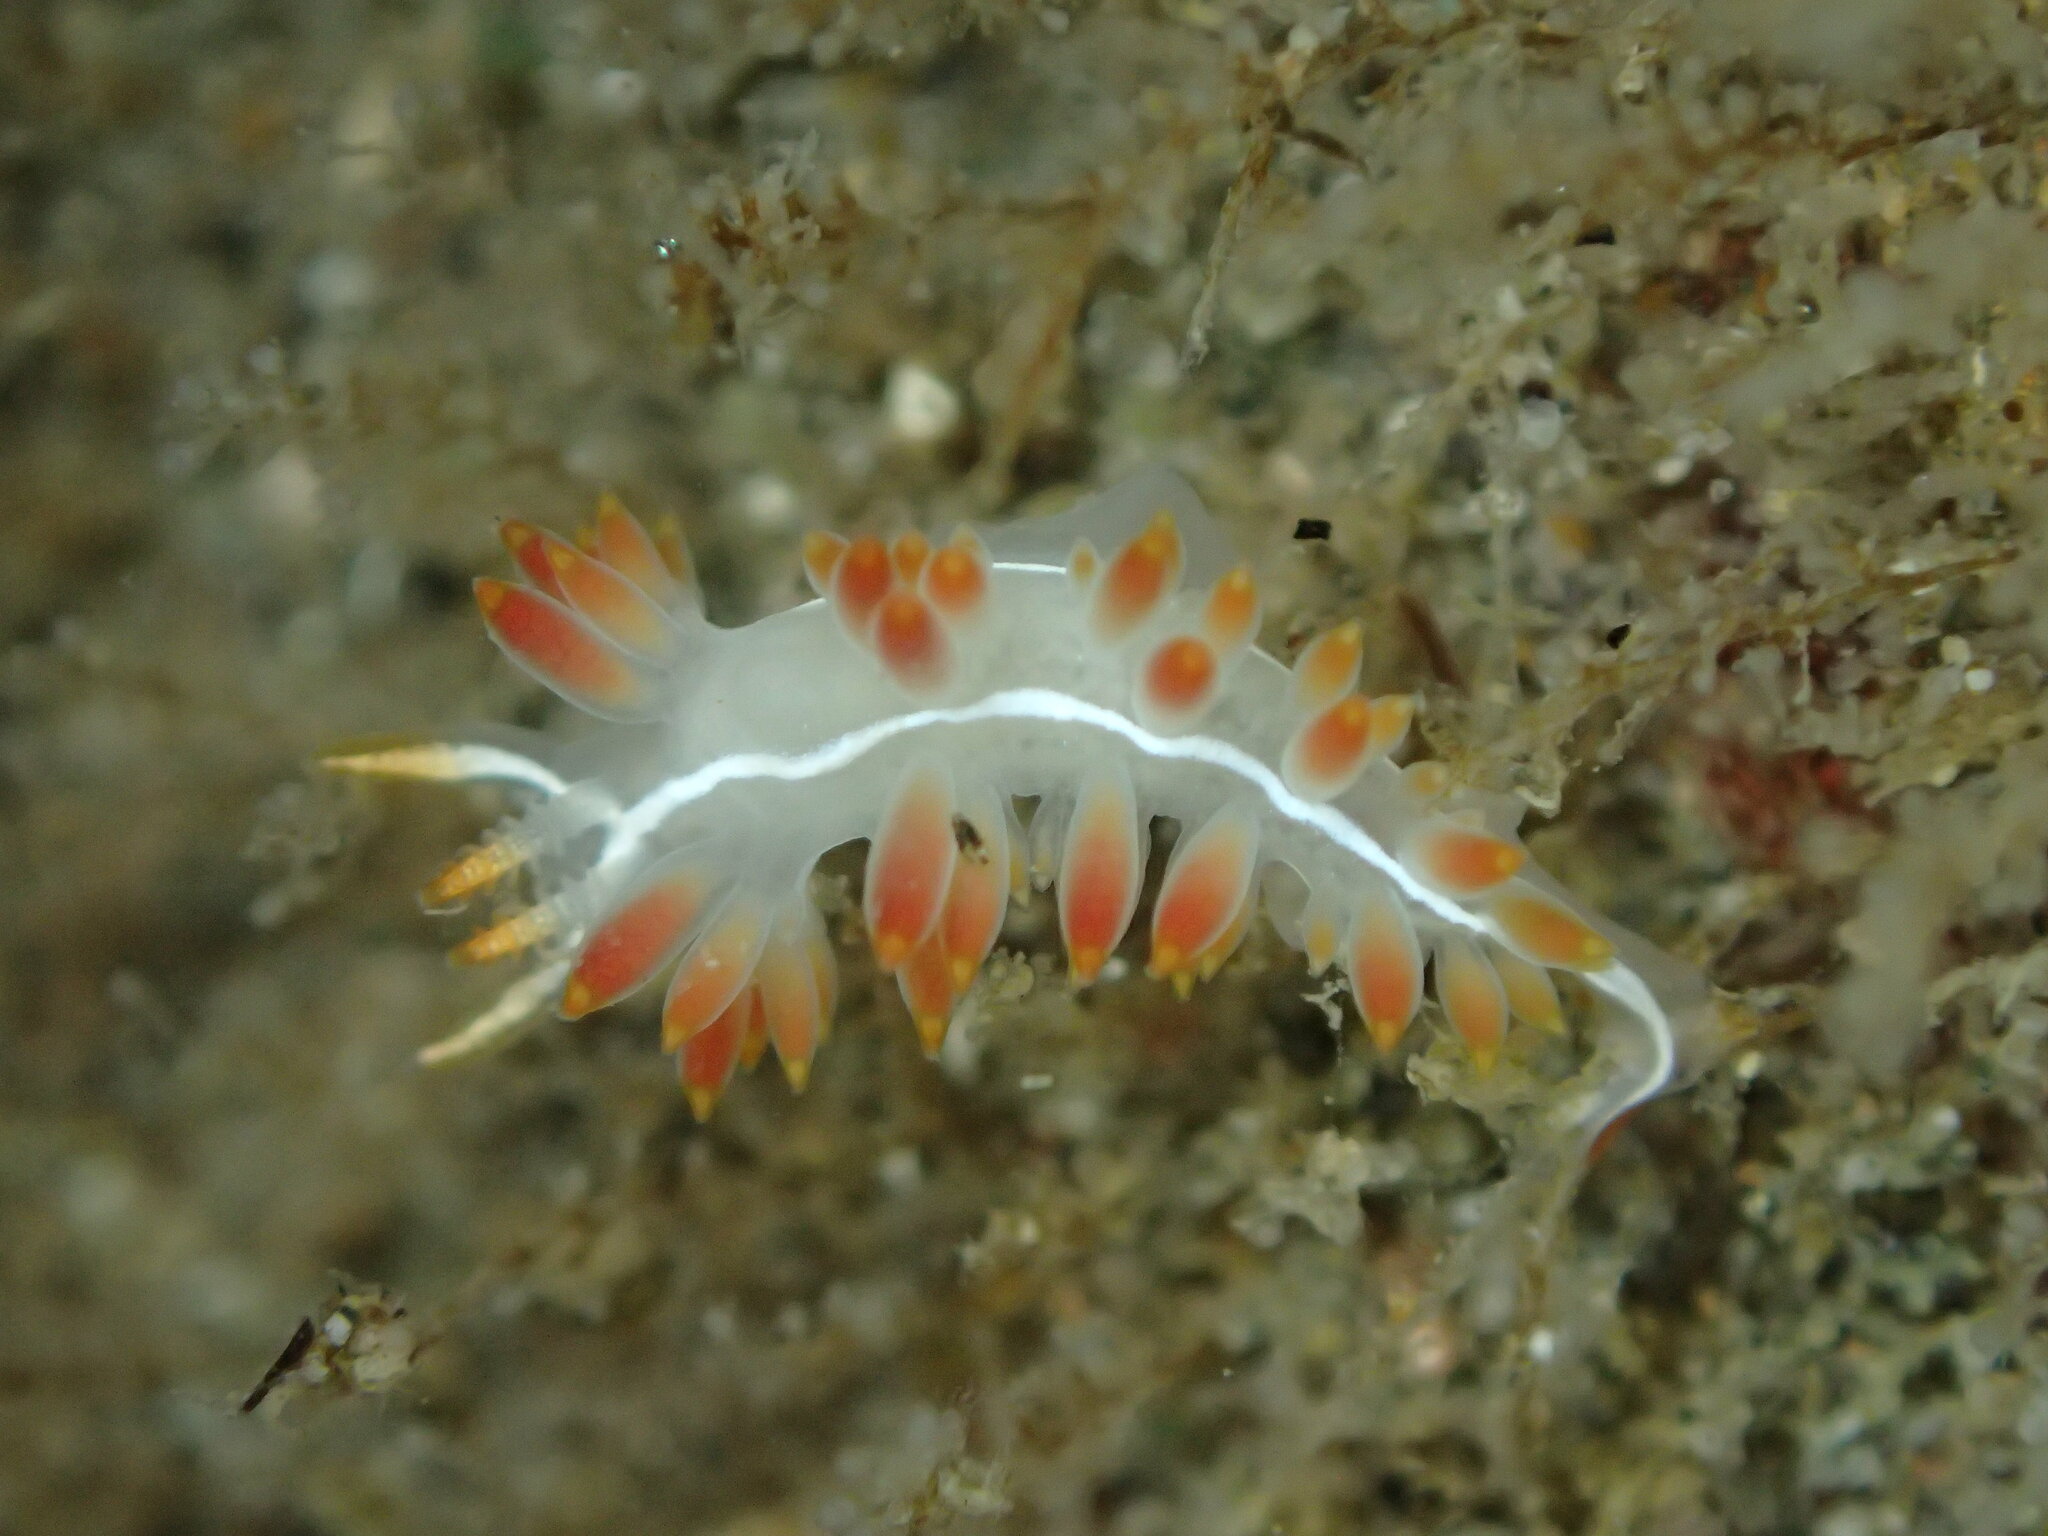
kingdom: Animalia
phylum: Mollusca
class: Gastropoda
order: Nudibranchia
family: Coryphellidae
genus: Coryphella
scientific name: Coryphella trilineata
